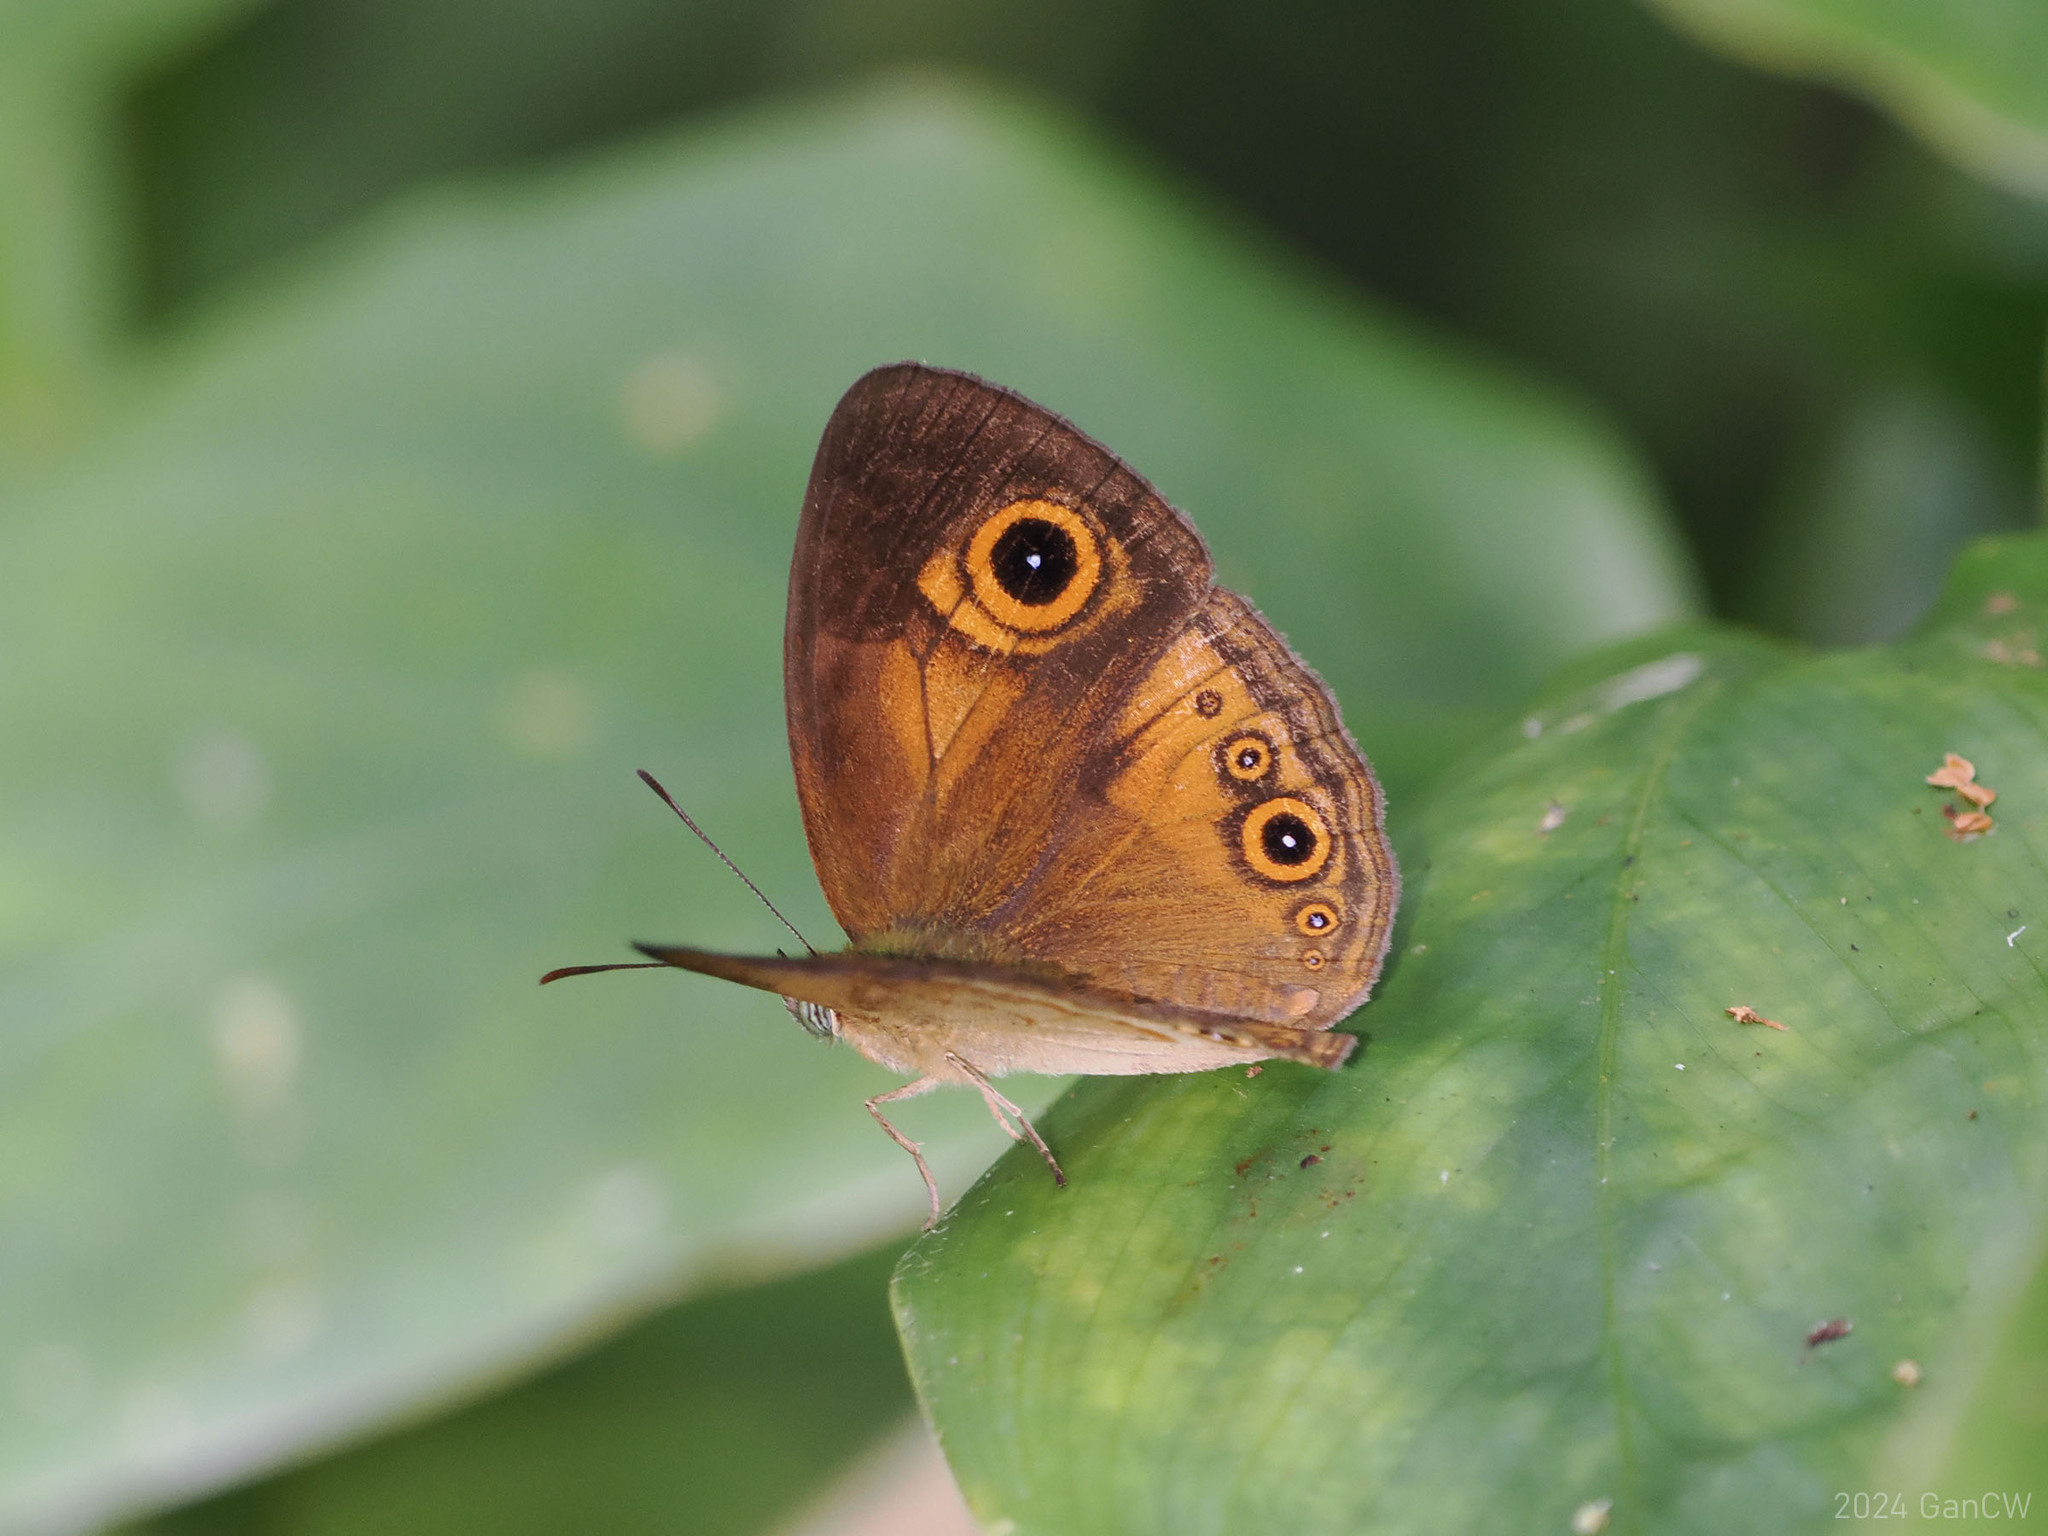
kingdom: Animalia
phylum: Arthropoda
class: Insecta
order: Lepidoptera
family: Nymphalidae
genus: Mycalesis
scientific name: Mycalesis ita
